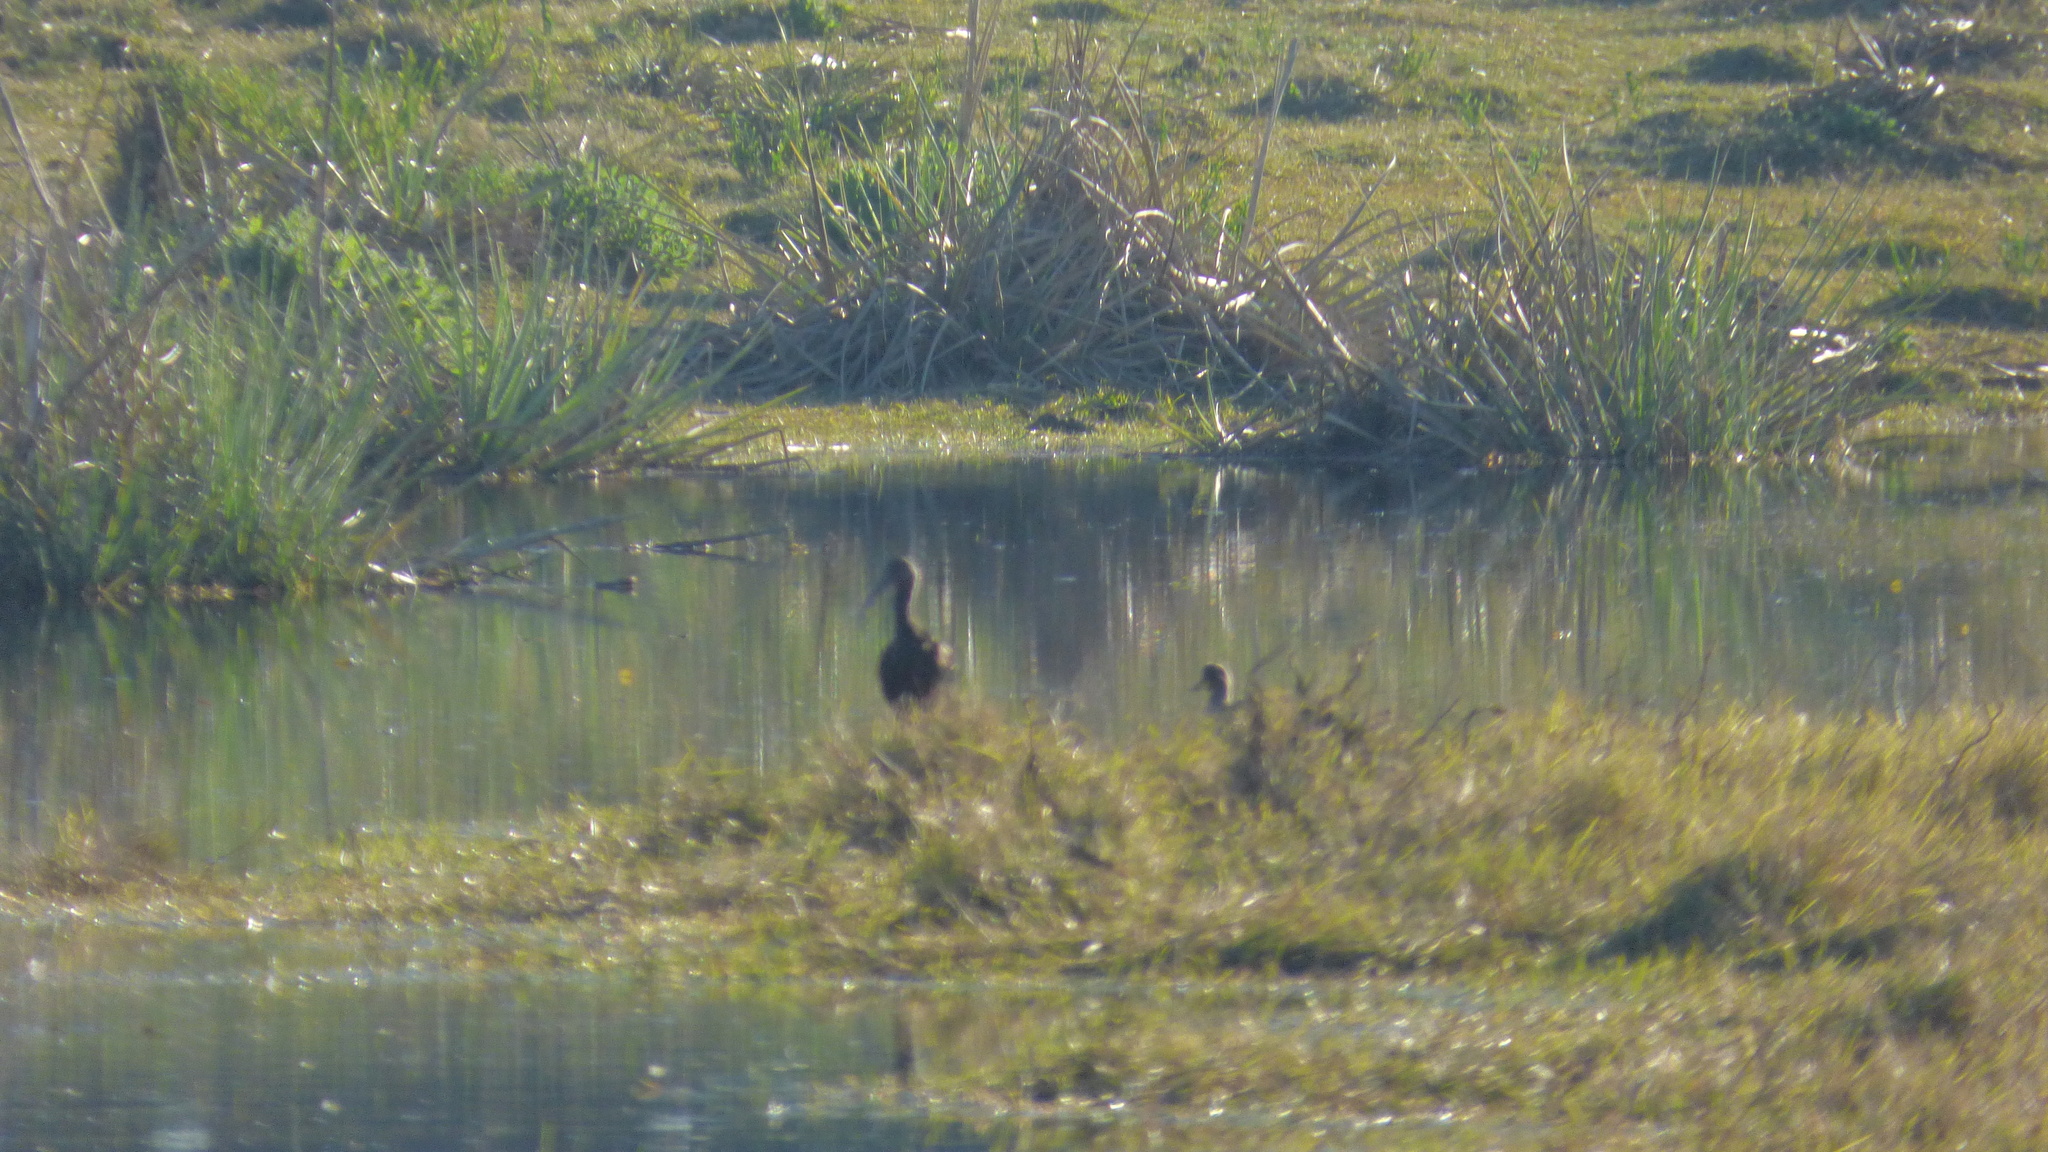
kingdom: Animalia
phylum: Chordata
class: Aves
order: Pelecaniformes
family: Threskiornithidae
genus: Plegadis
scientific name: Plegadis chihi
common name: White-faced ibis
